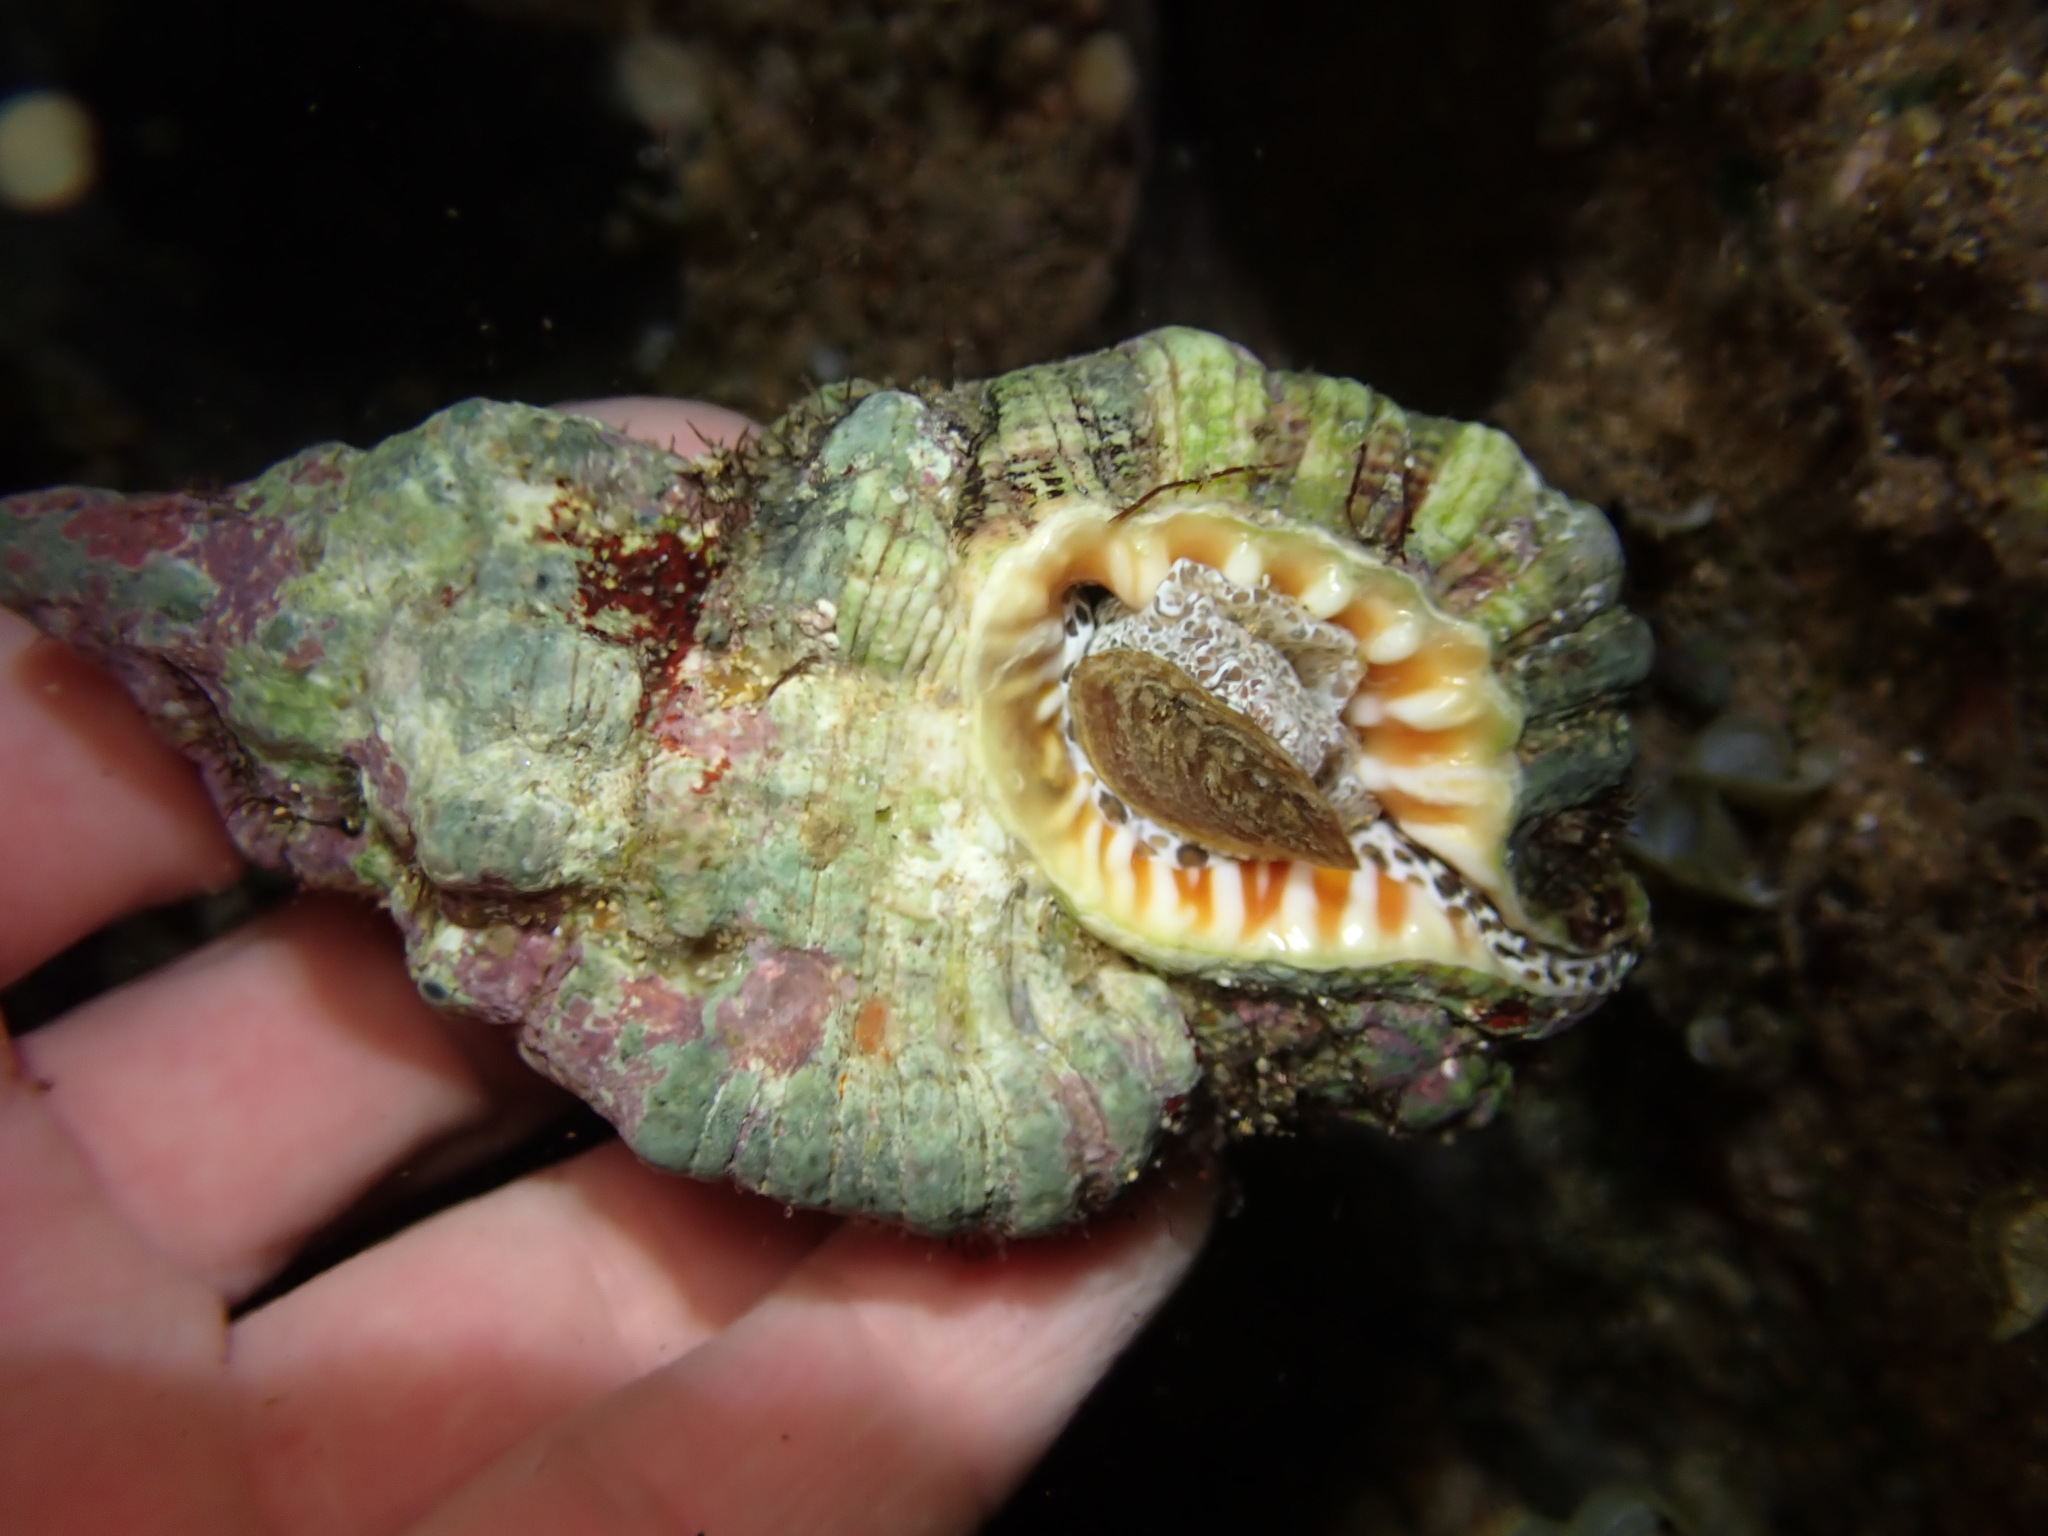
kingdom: Animalia
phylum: Mollusca
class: Gastropoda
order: Littorinimorpha
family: Cymatiidae
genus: Monoplex
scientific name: Monoplex nicobaricus
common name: Goldmouth triton
